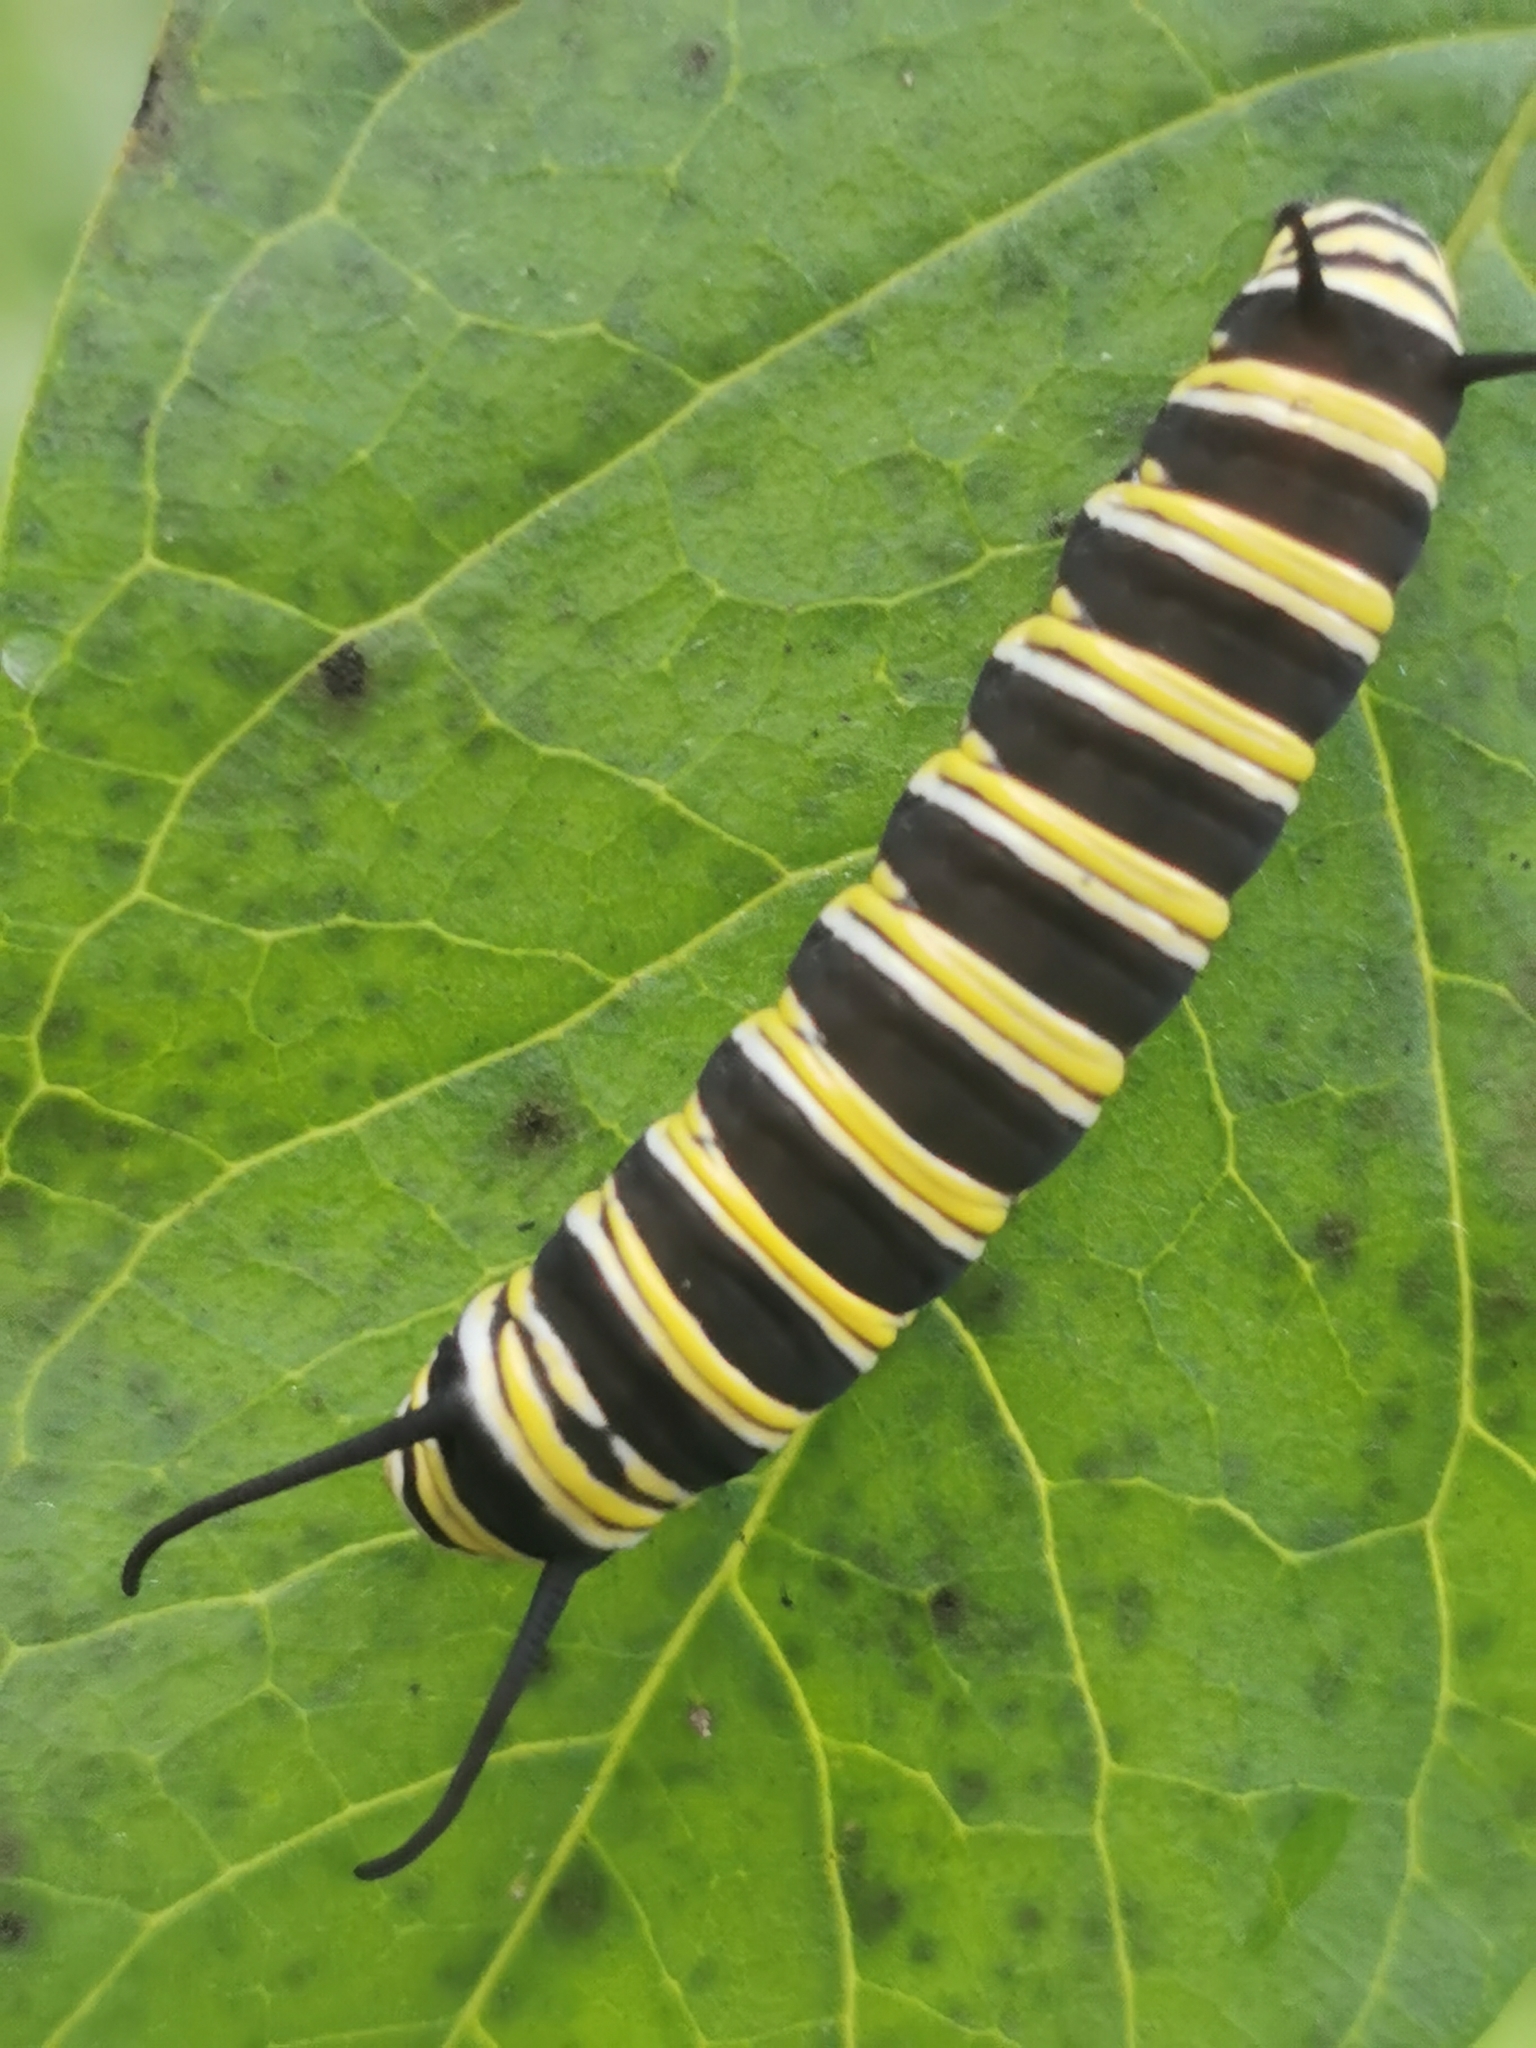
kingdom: Animalia
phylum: Arthropoda
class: Insecta
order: Lepidoptera
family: Nymphalidae
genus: Danaus
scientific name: Danaus plexippus
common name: Monarch
